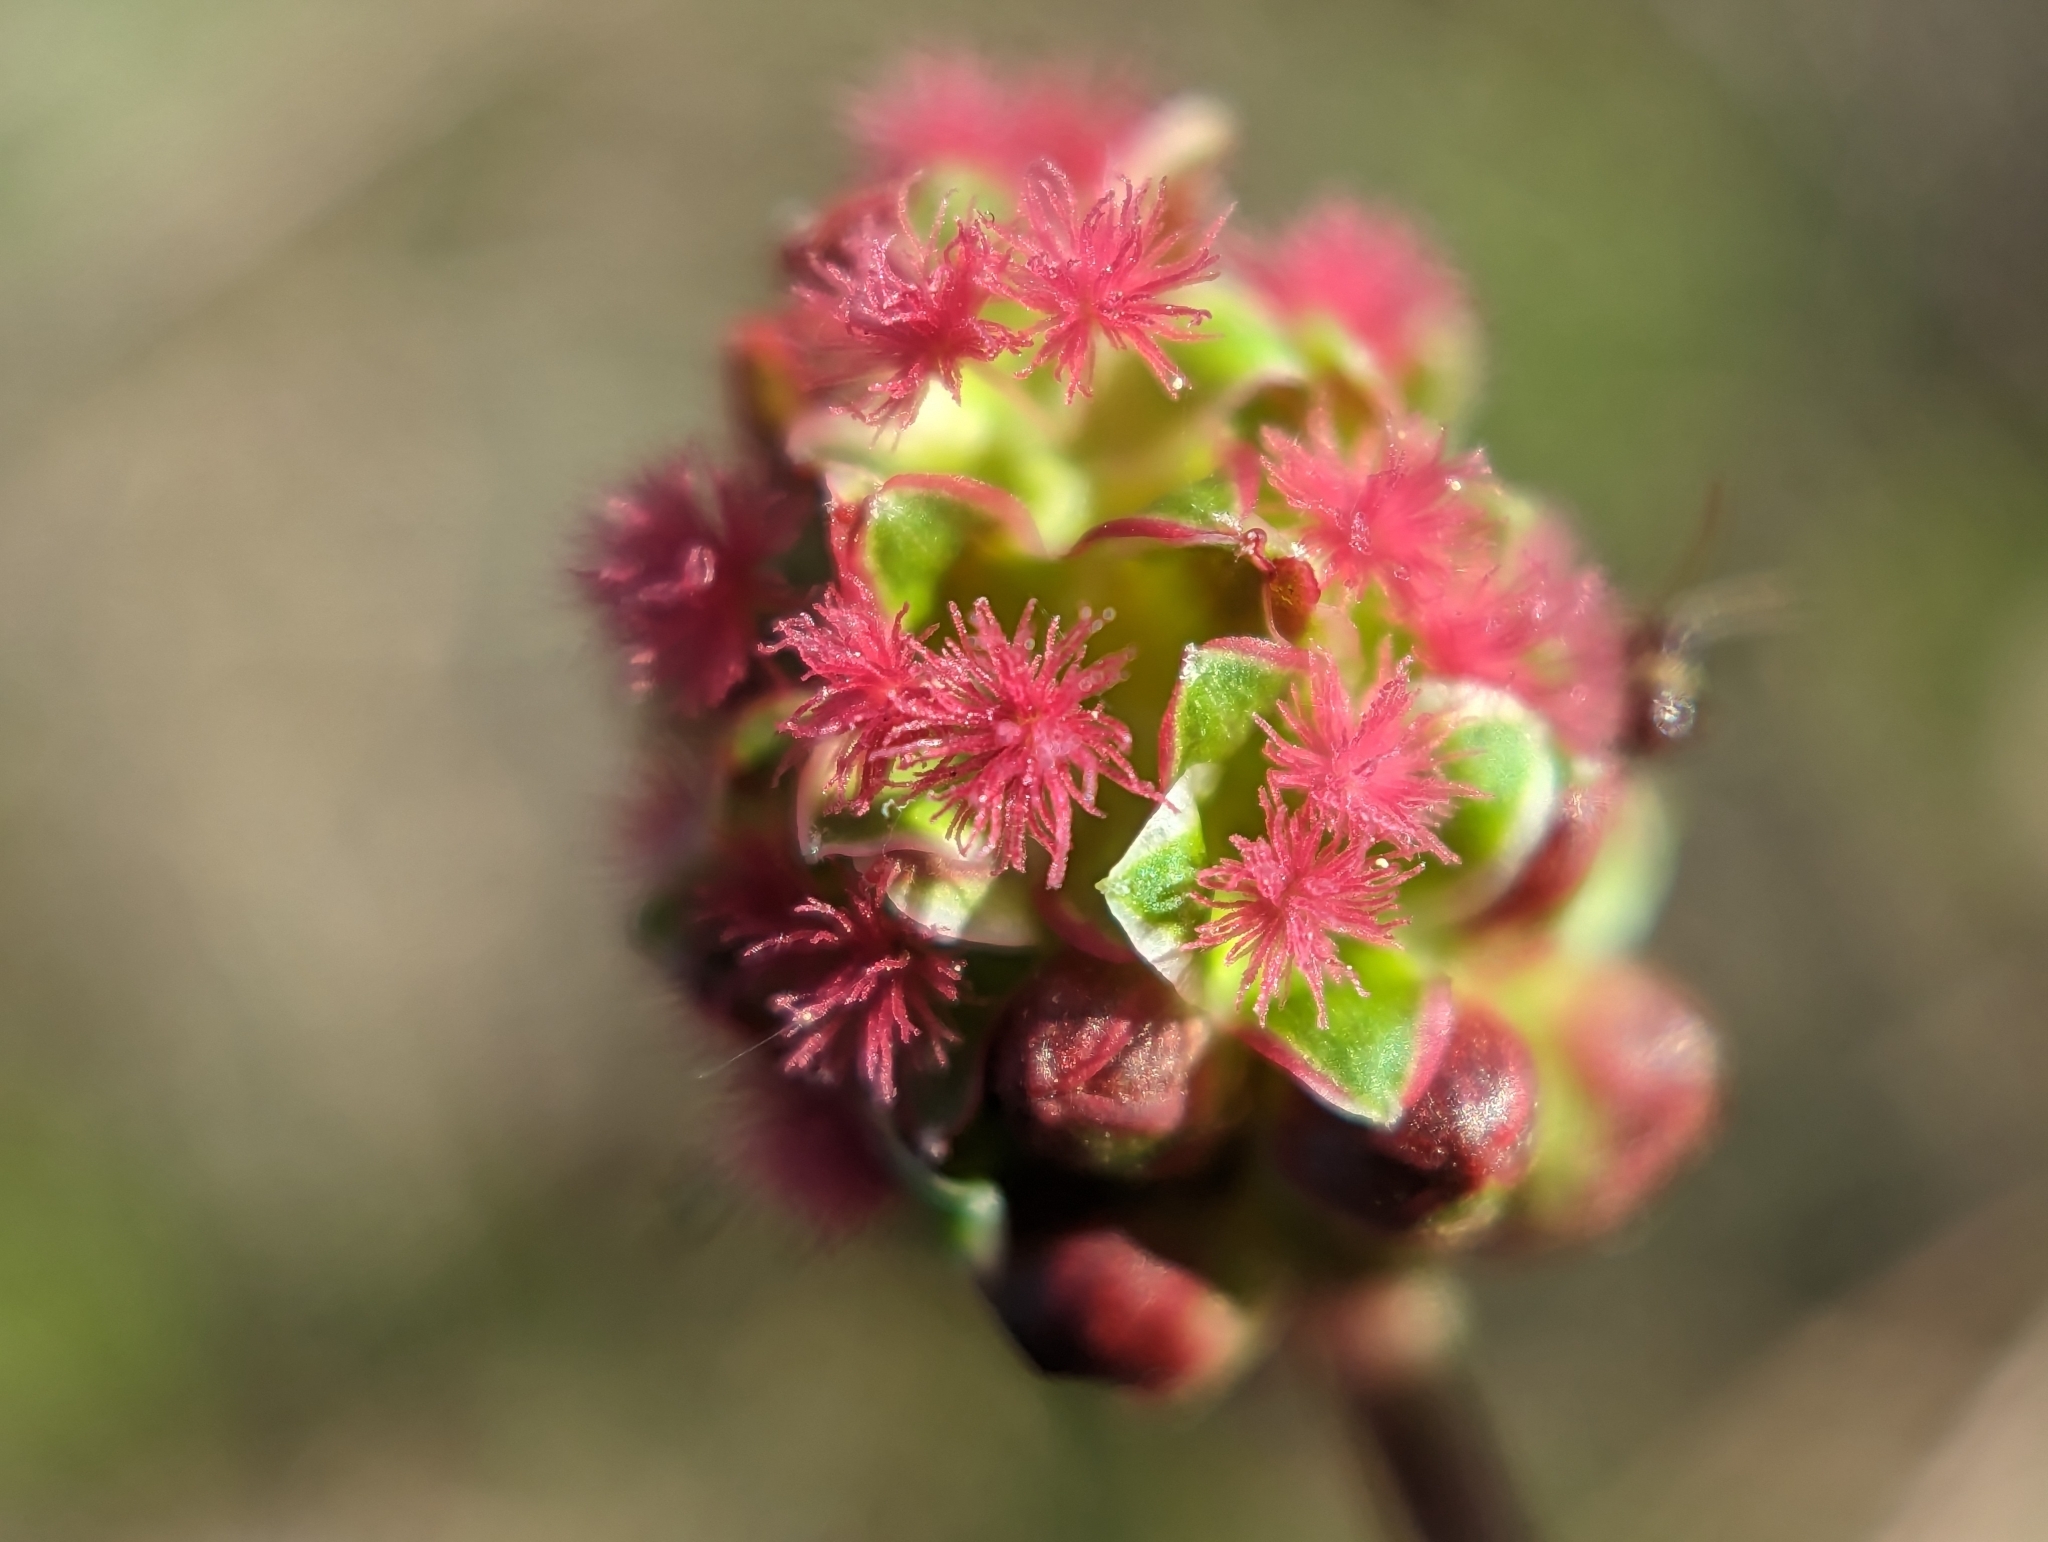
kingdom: Plantae
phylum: Tracheophyta
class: Magnoliopsida
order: Rosales
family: Rosaceae
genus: Poterium
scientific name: Poterium sanguisorba
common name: Salad burnet
